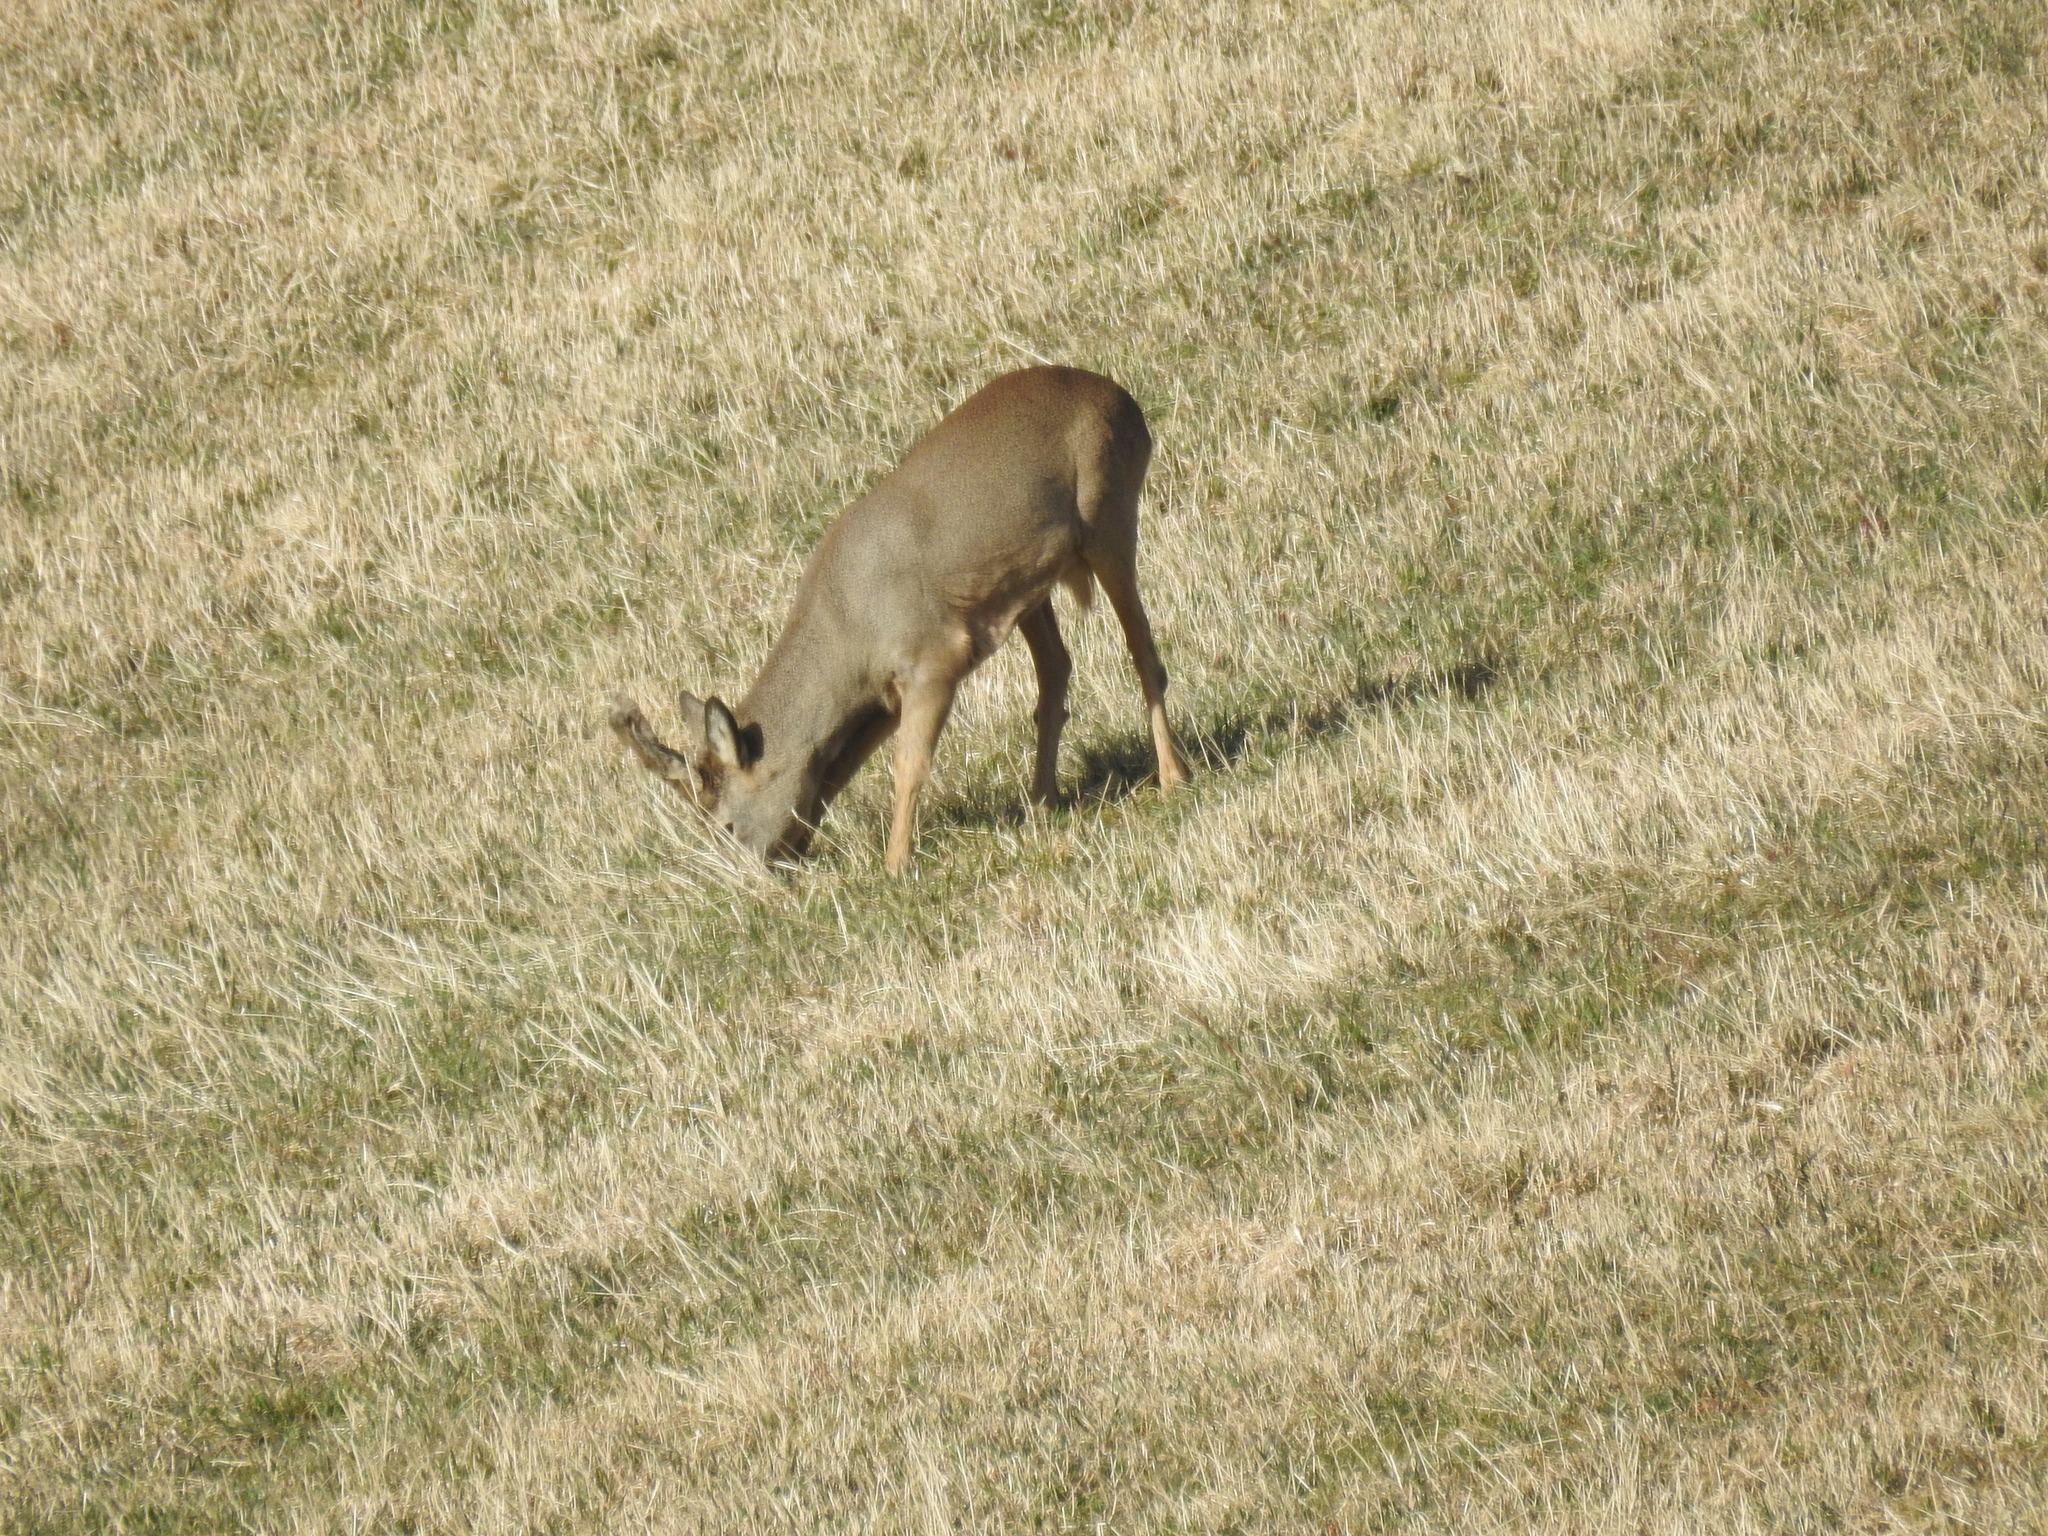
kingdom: Animalia
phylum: Chordata
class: Mammalia
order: Artiodactyla
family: Cervidae
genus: Capreolus
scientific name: Capreolus capreolus
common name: Western roe deer
